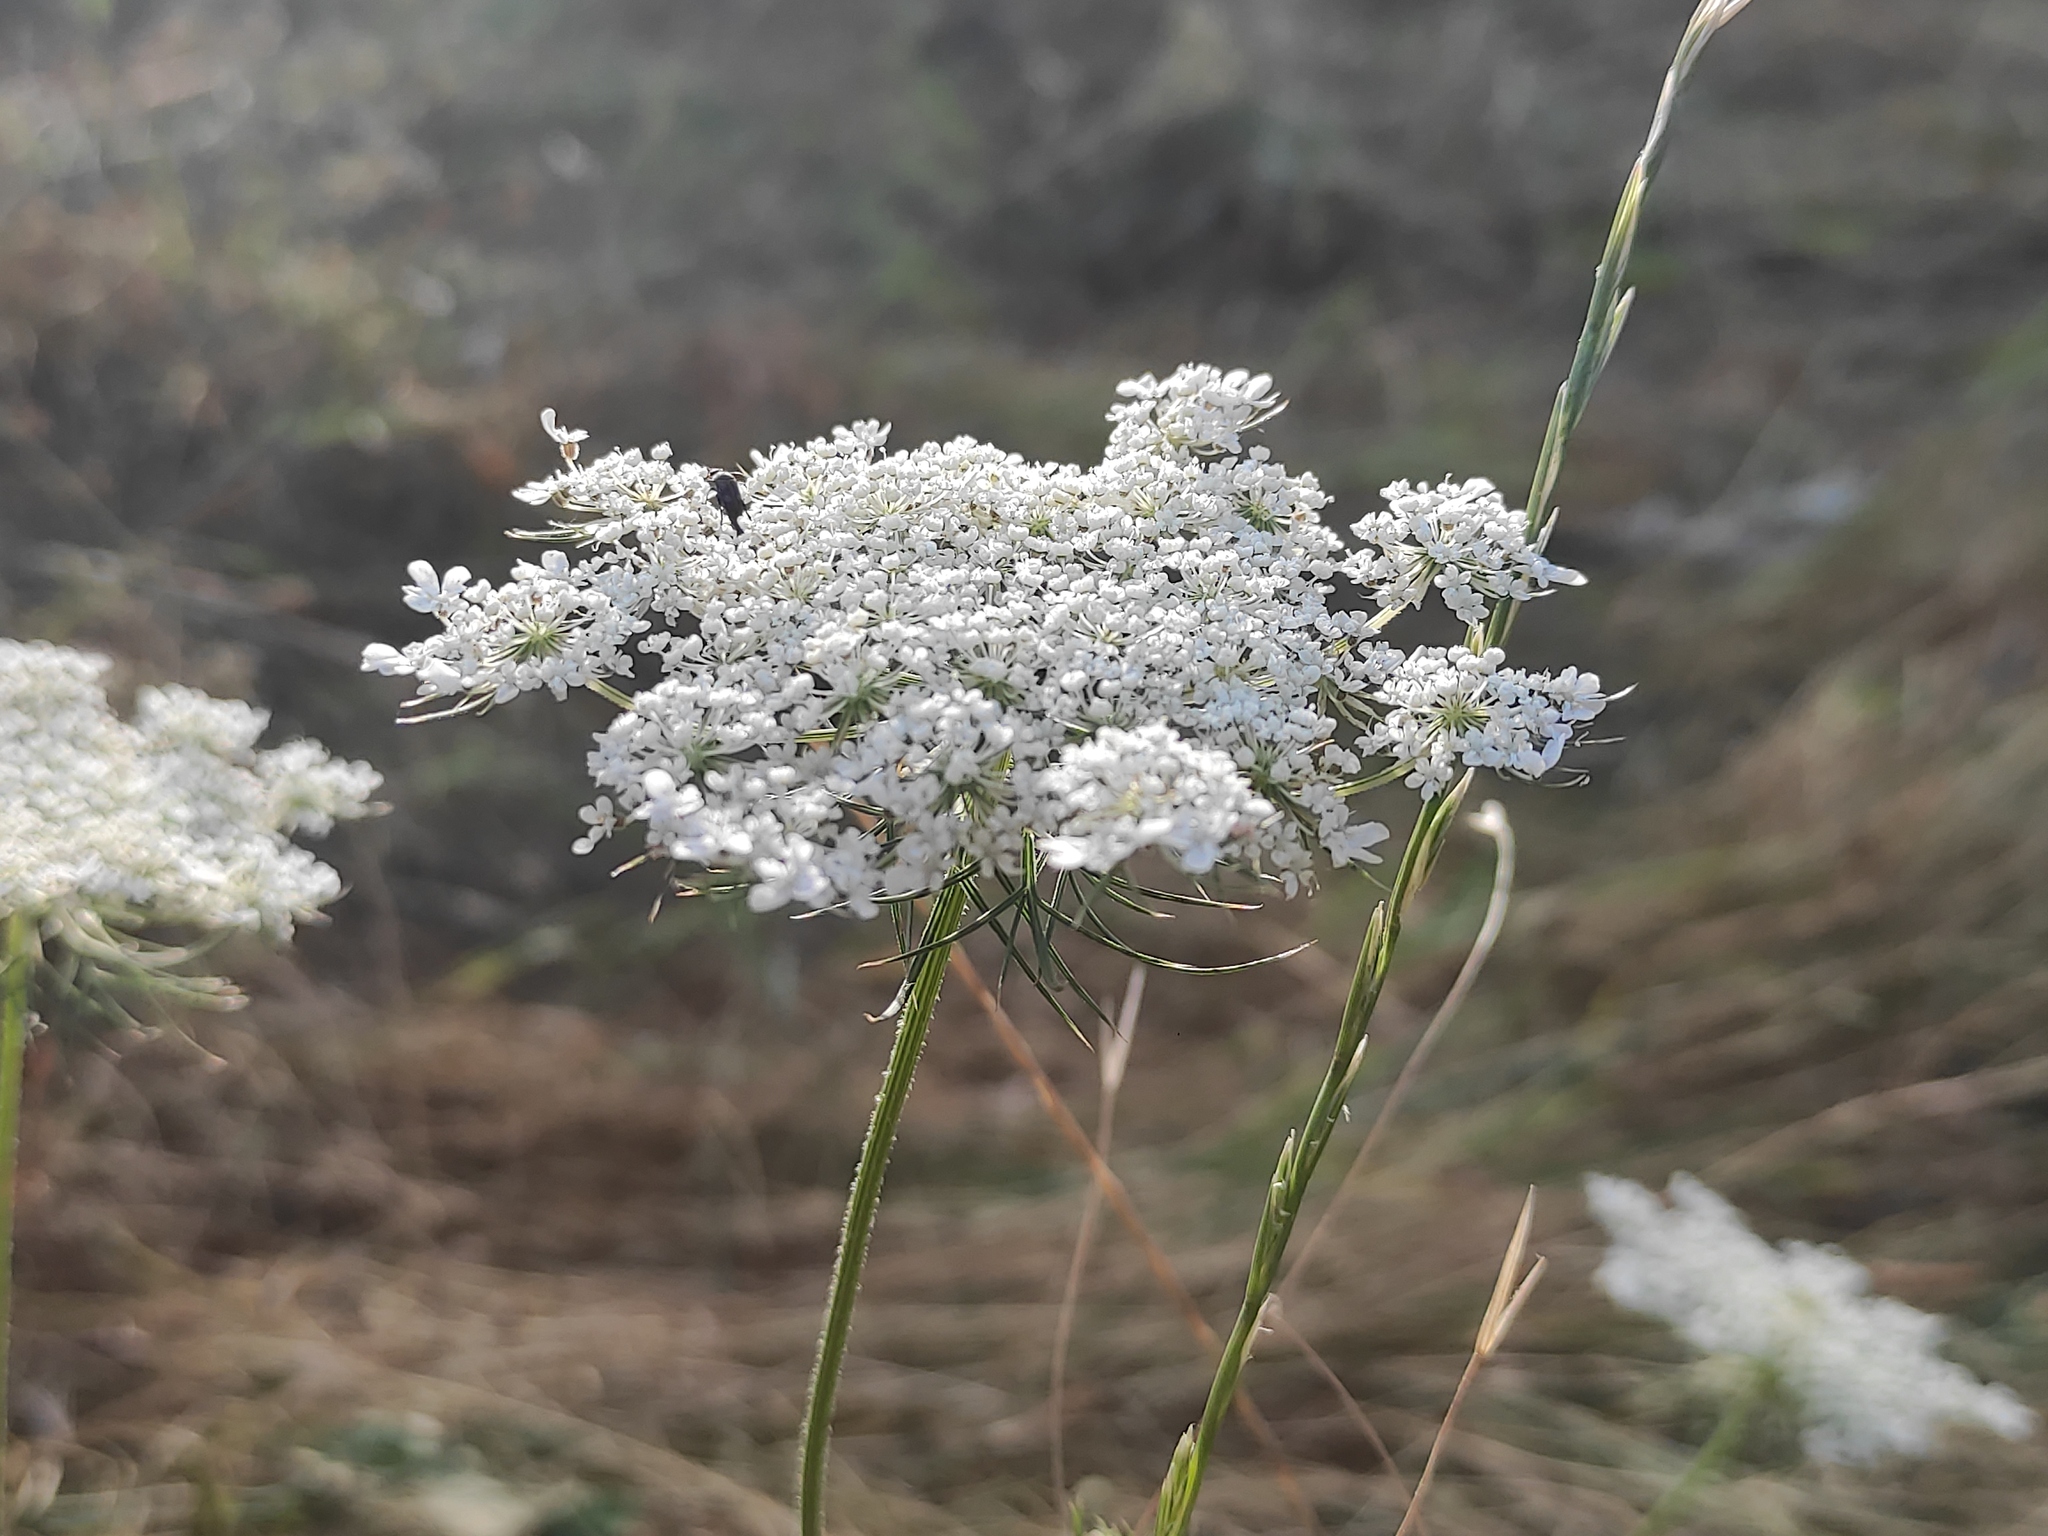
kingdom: Plantae
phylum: Tracheophyta
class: Magnoliopsida
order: Apiales
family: Apiaceae
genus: Daucus
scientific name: Daucus carota
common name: Wild carrot
